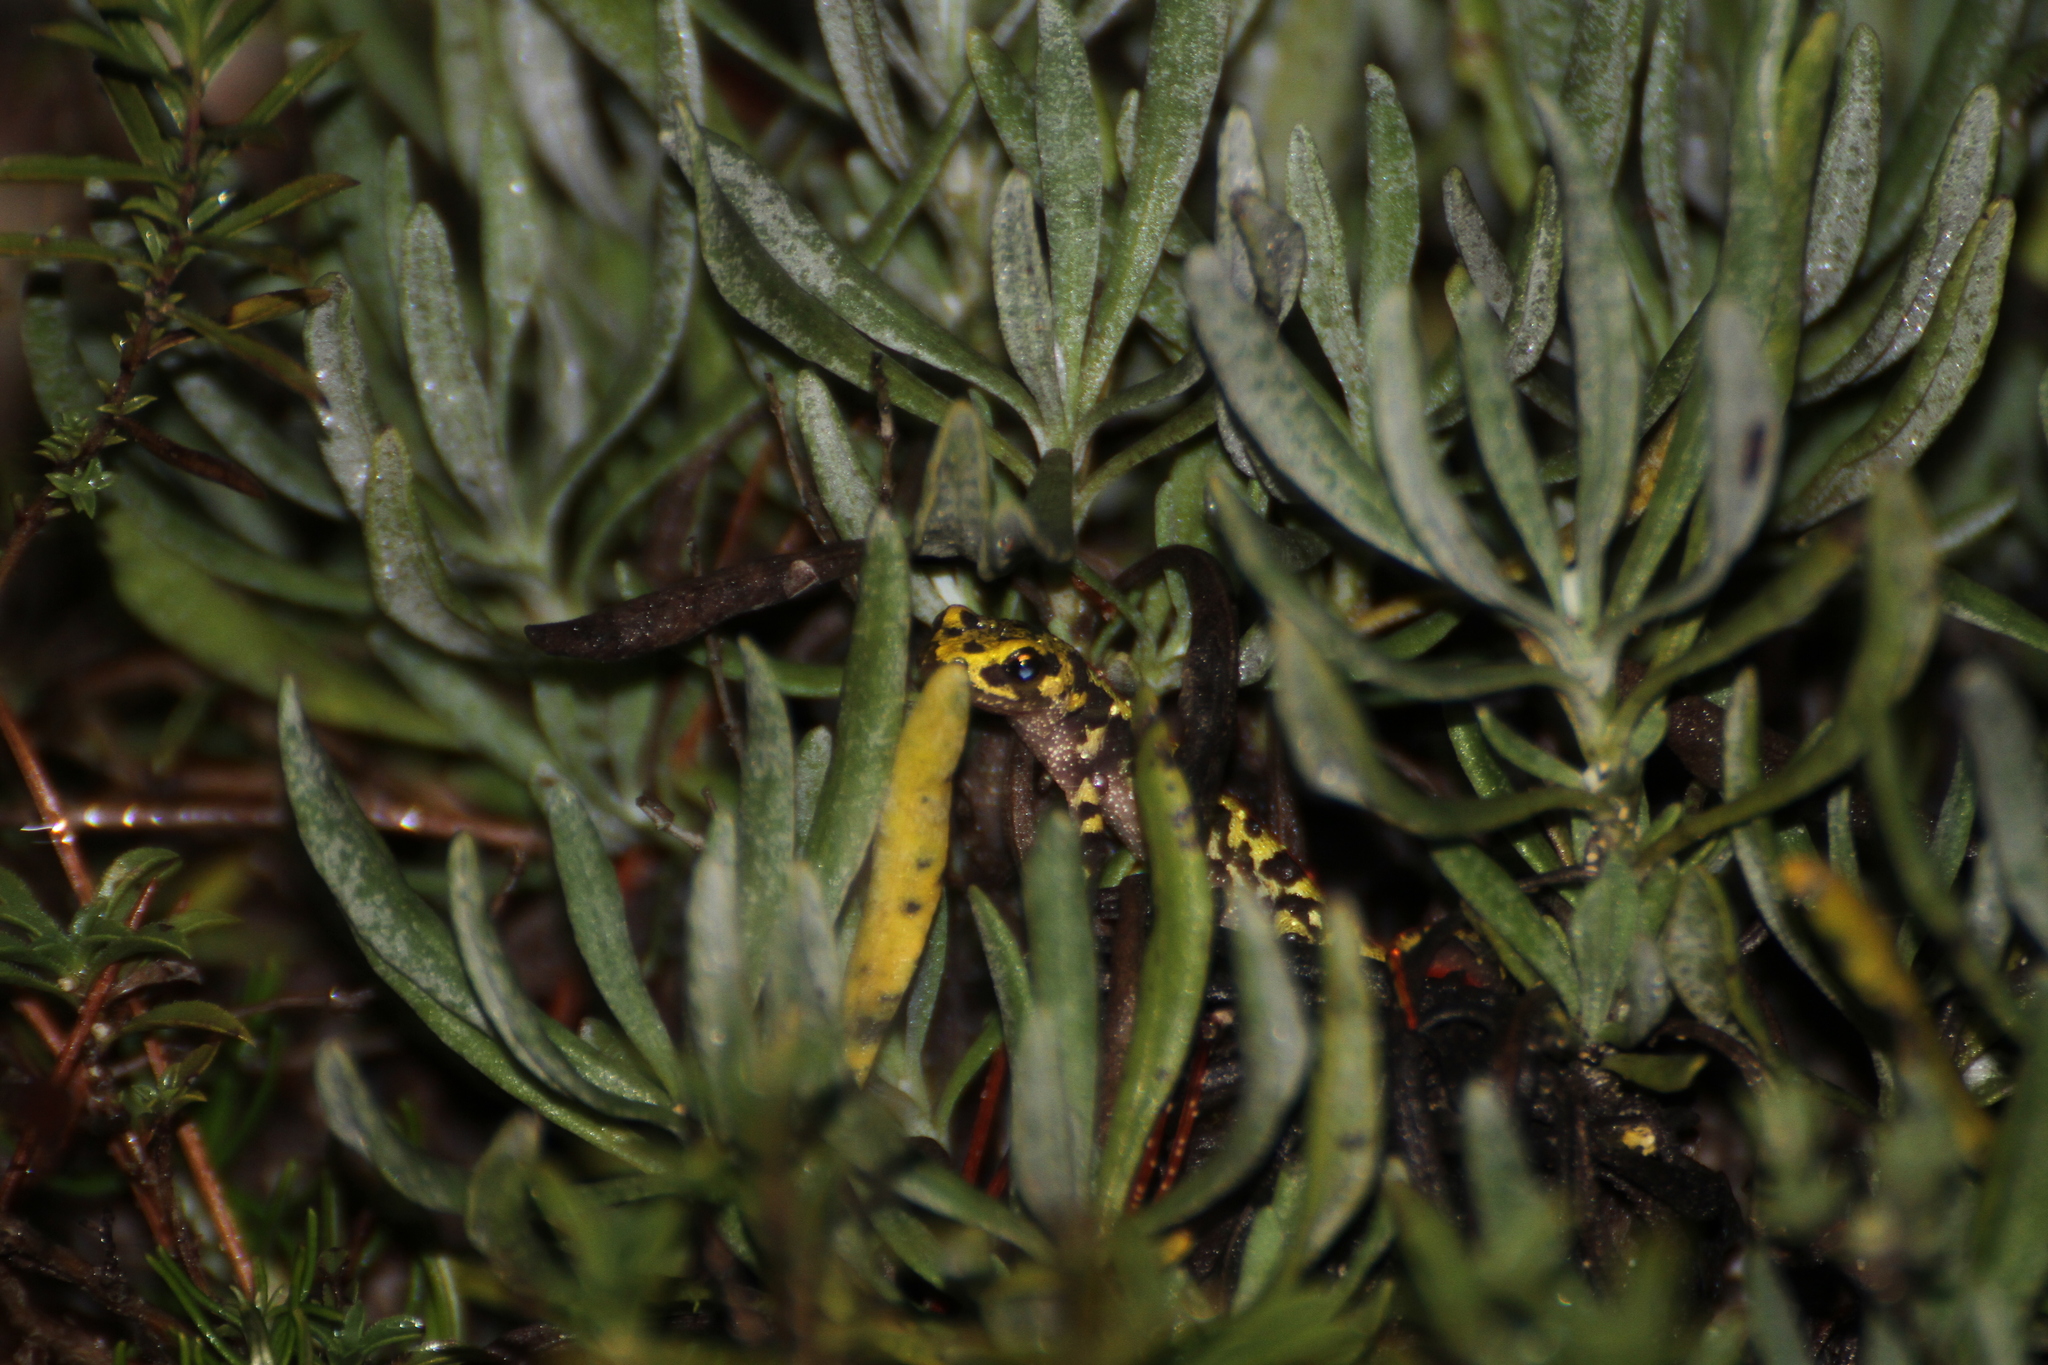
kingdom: Animalia
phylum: Chordata
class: Amphibia
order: Caudata
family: Salamandridae
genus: Triturus
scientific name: Triturus marmoratus
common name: Marbled newt
